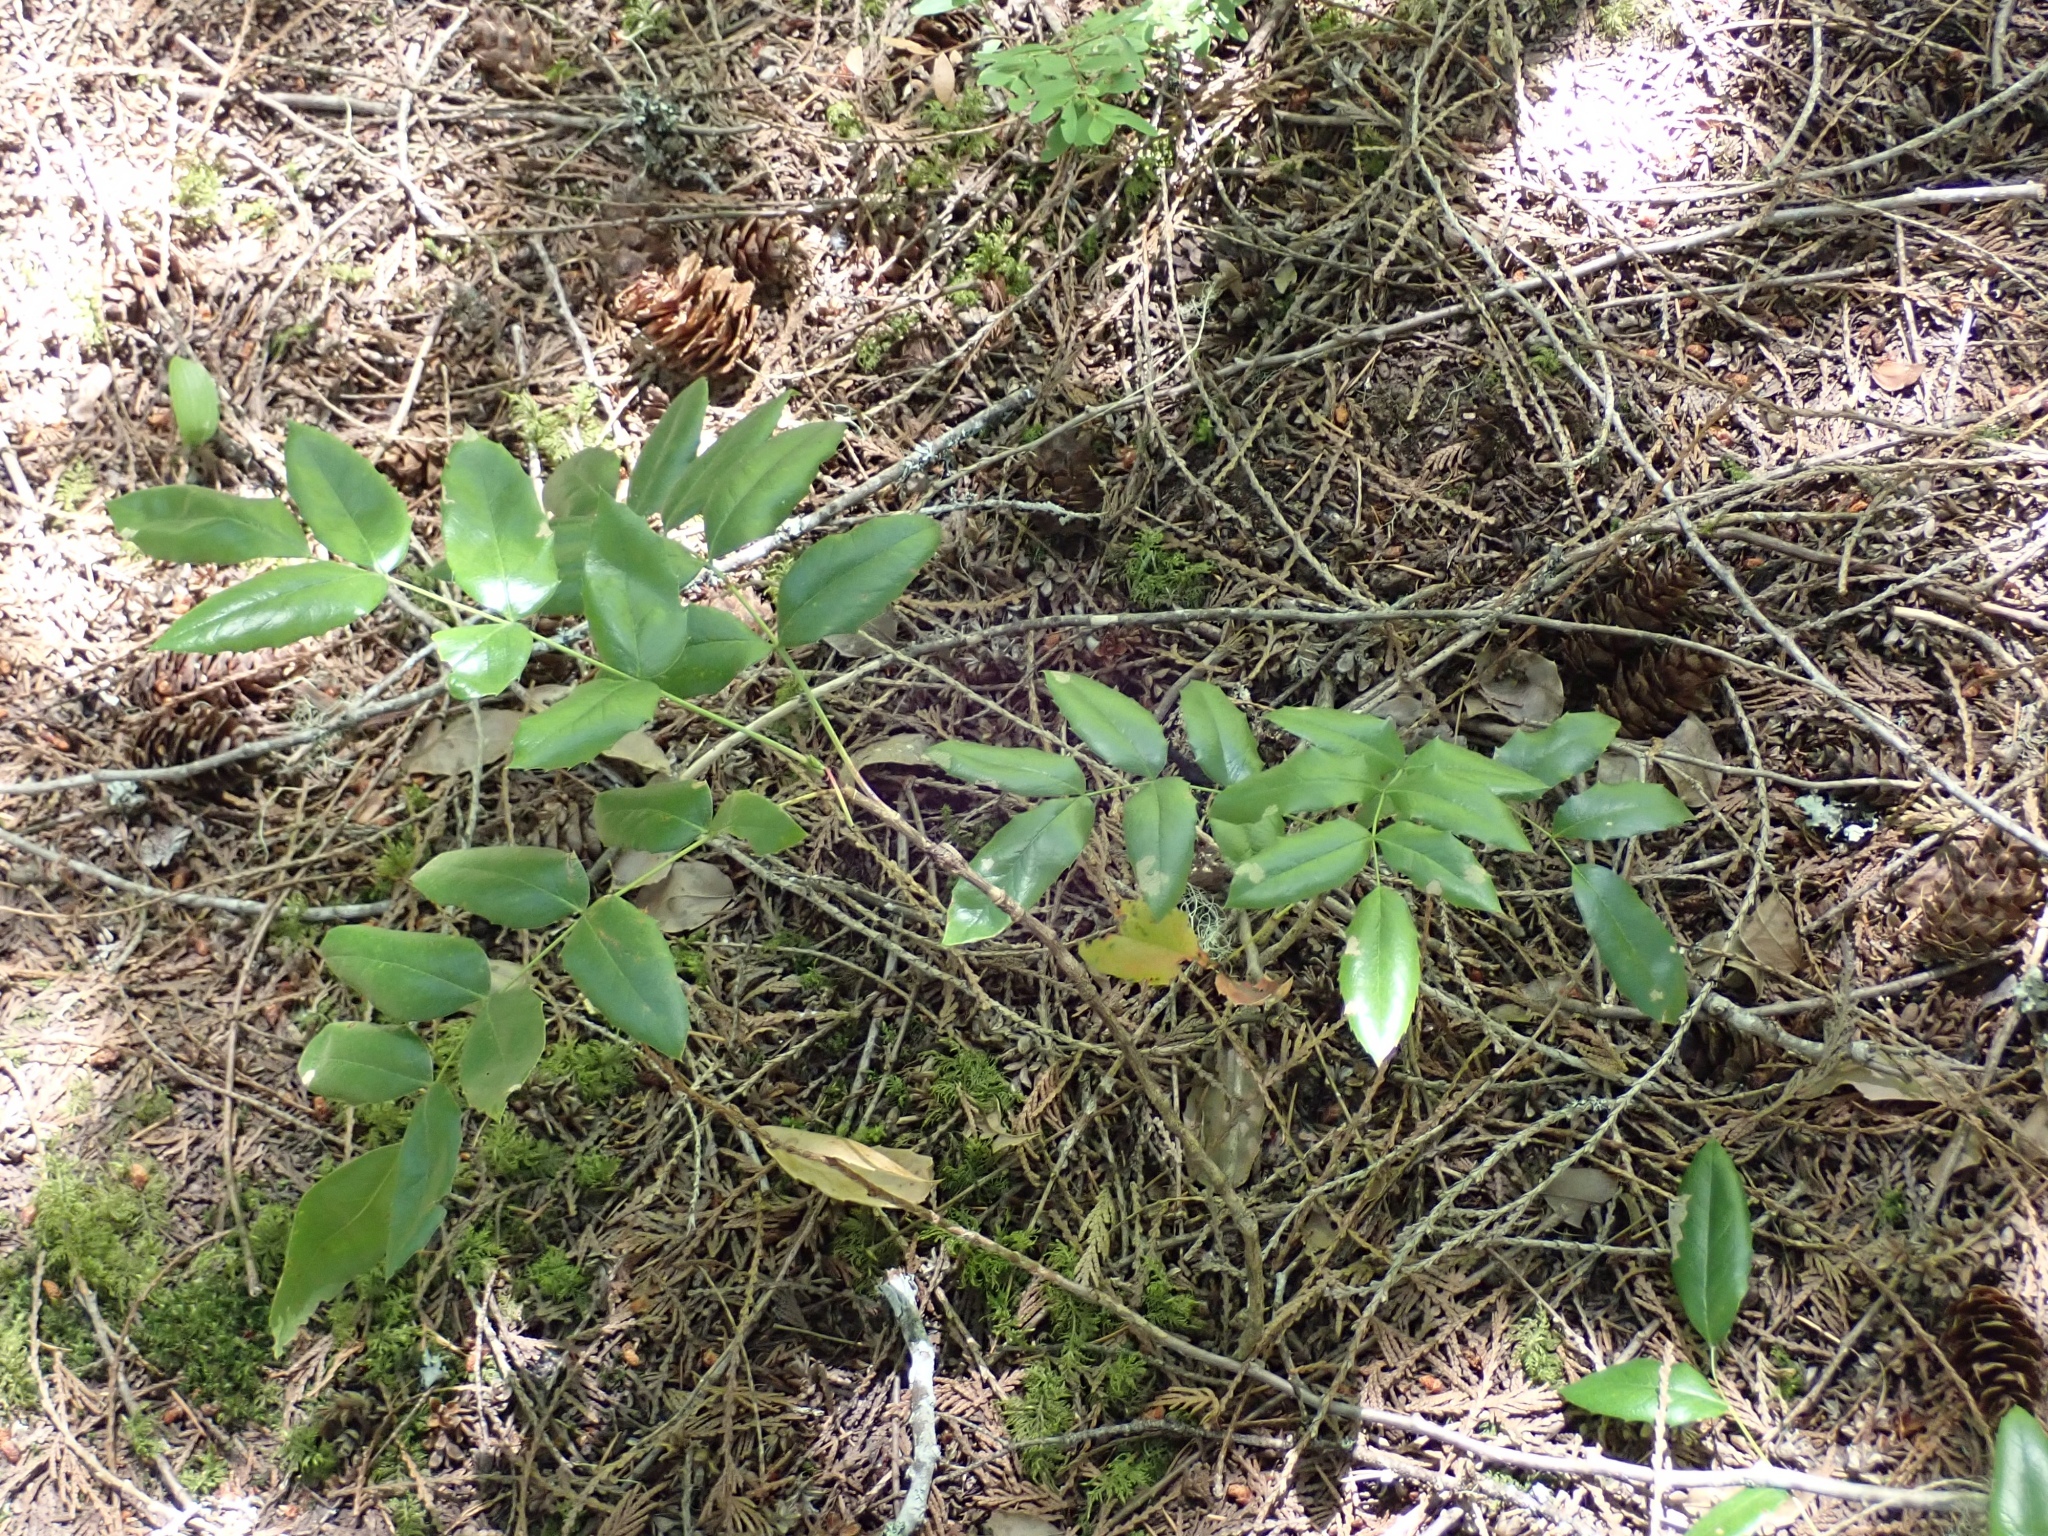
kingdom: Plantae
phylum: Tracheophyta
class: Magnoliopsida
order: Ranunculales
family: Berberidaceae
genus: Mahonia
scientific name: Mahonia aquifolium
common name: Oregon-grape
